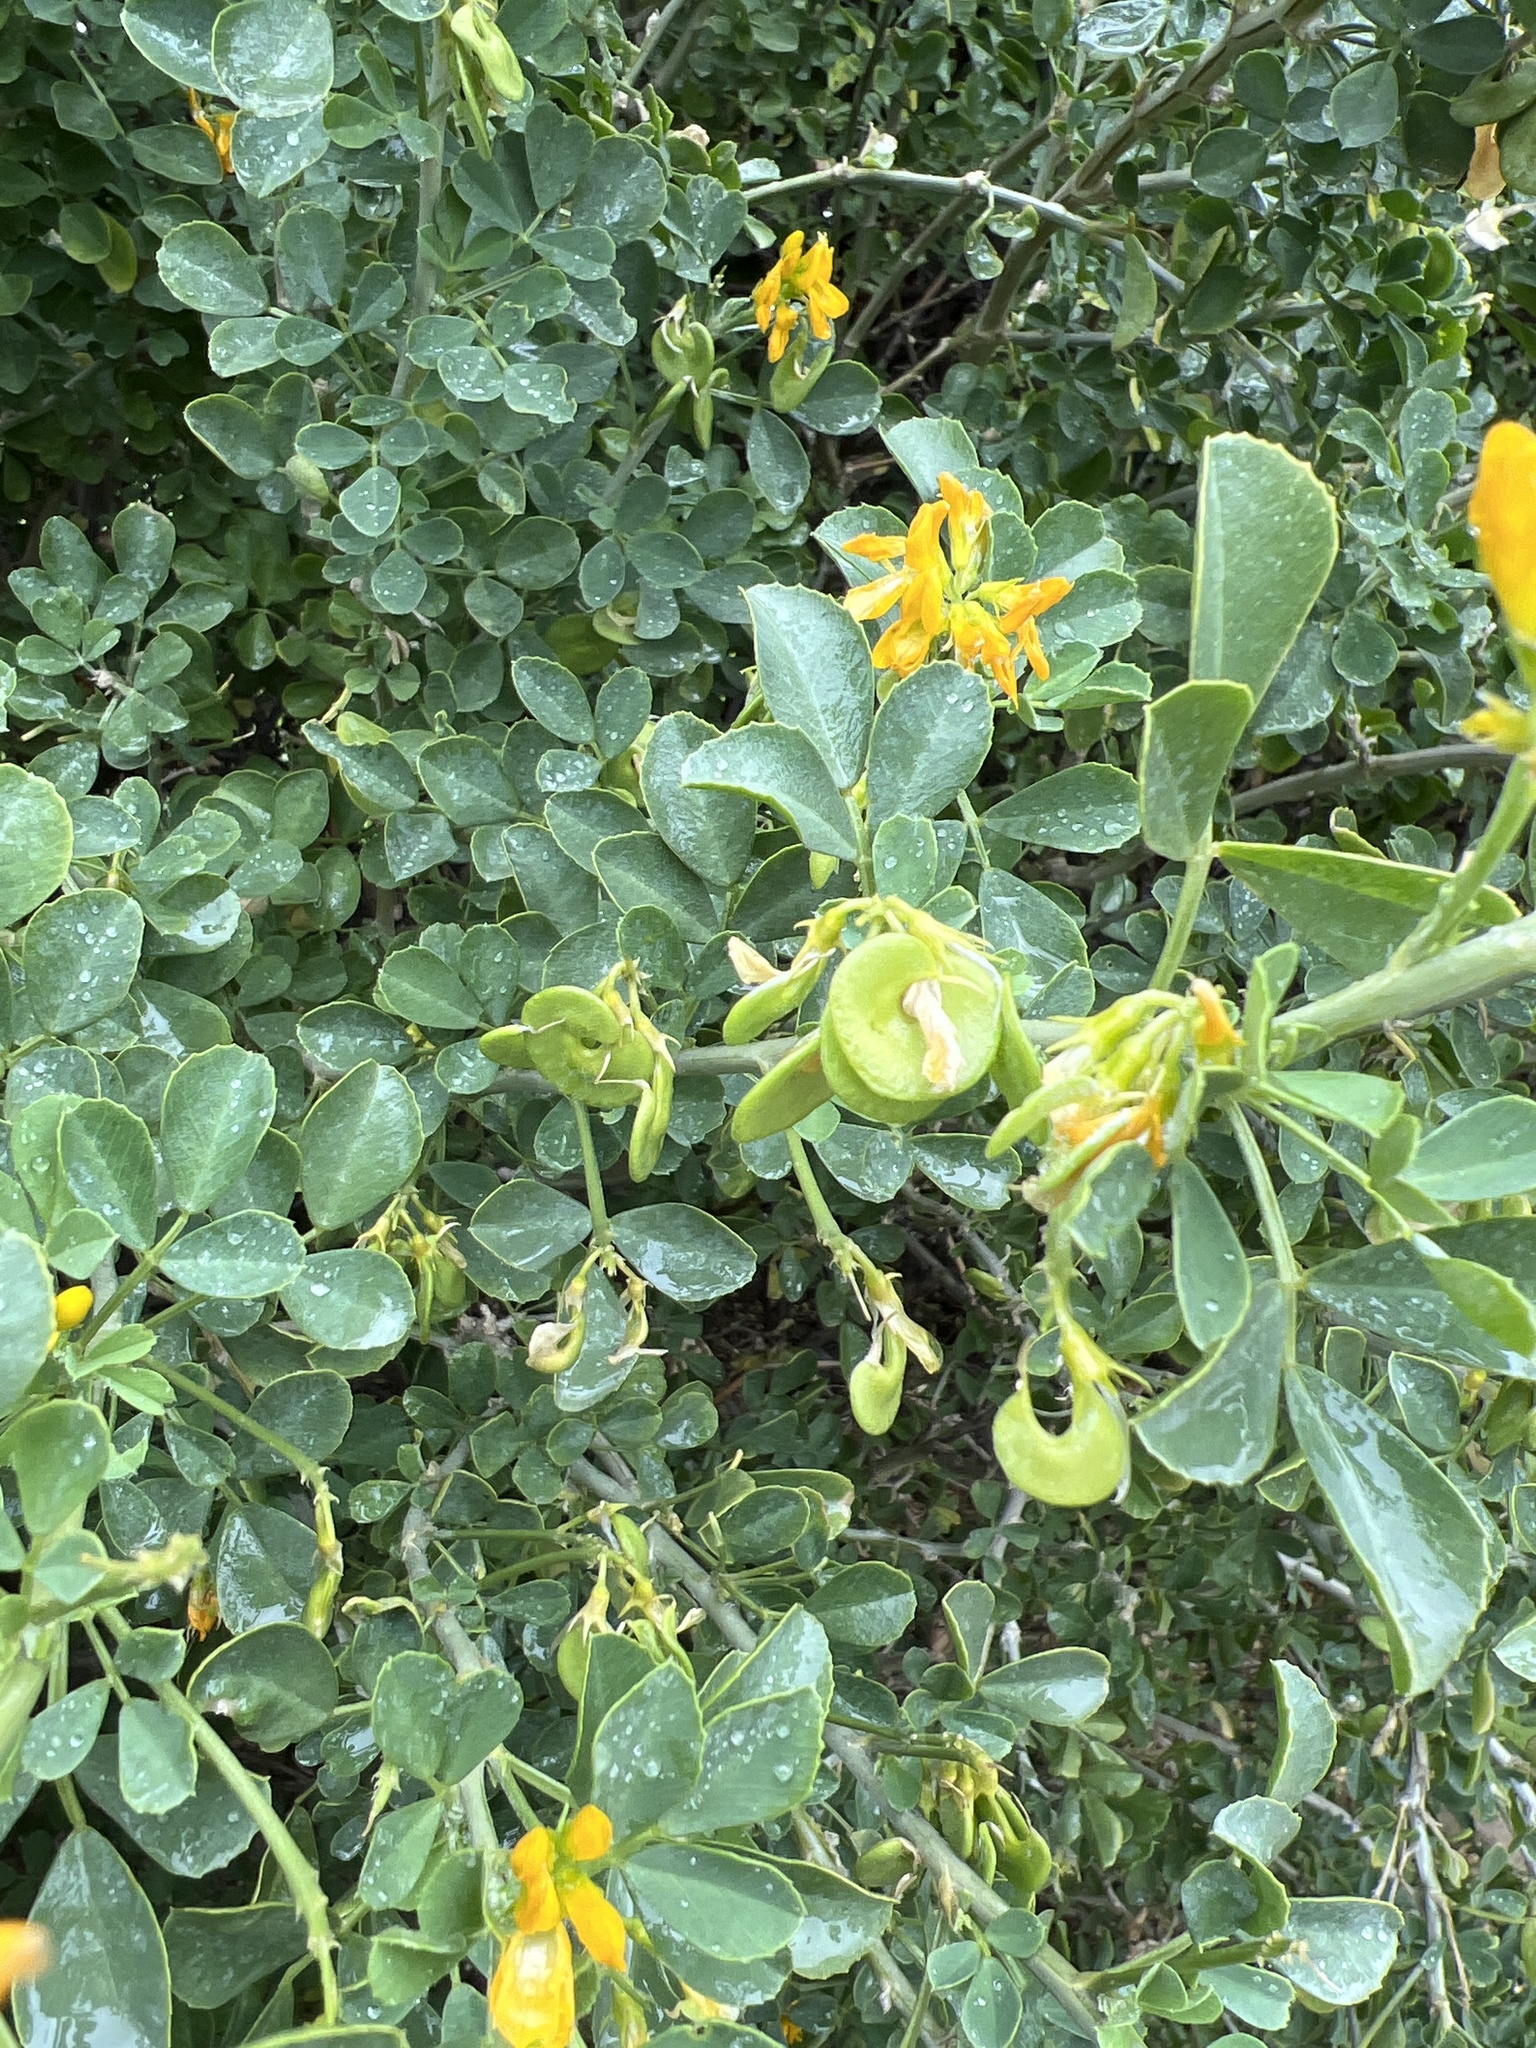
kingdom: Plantae
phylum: Tracheophyta
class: Magnoliopsida
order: Fabales
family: Fabaceae
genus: Medicago
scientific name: Medicago arborea
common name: Moon trefoil
